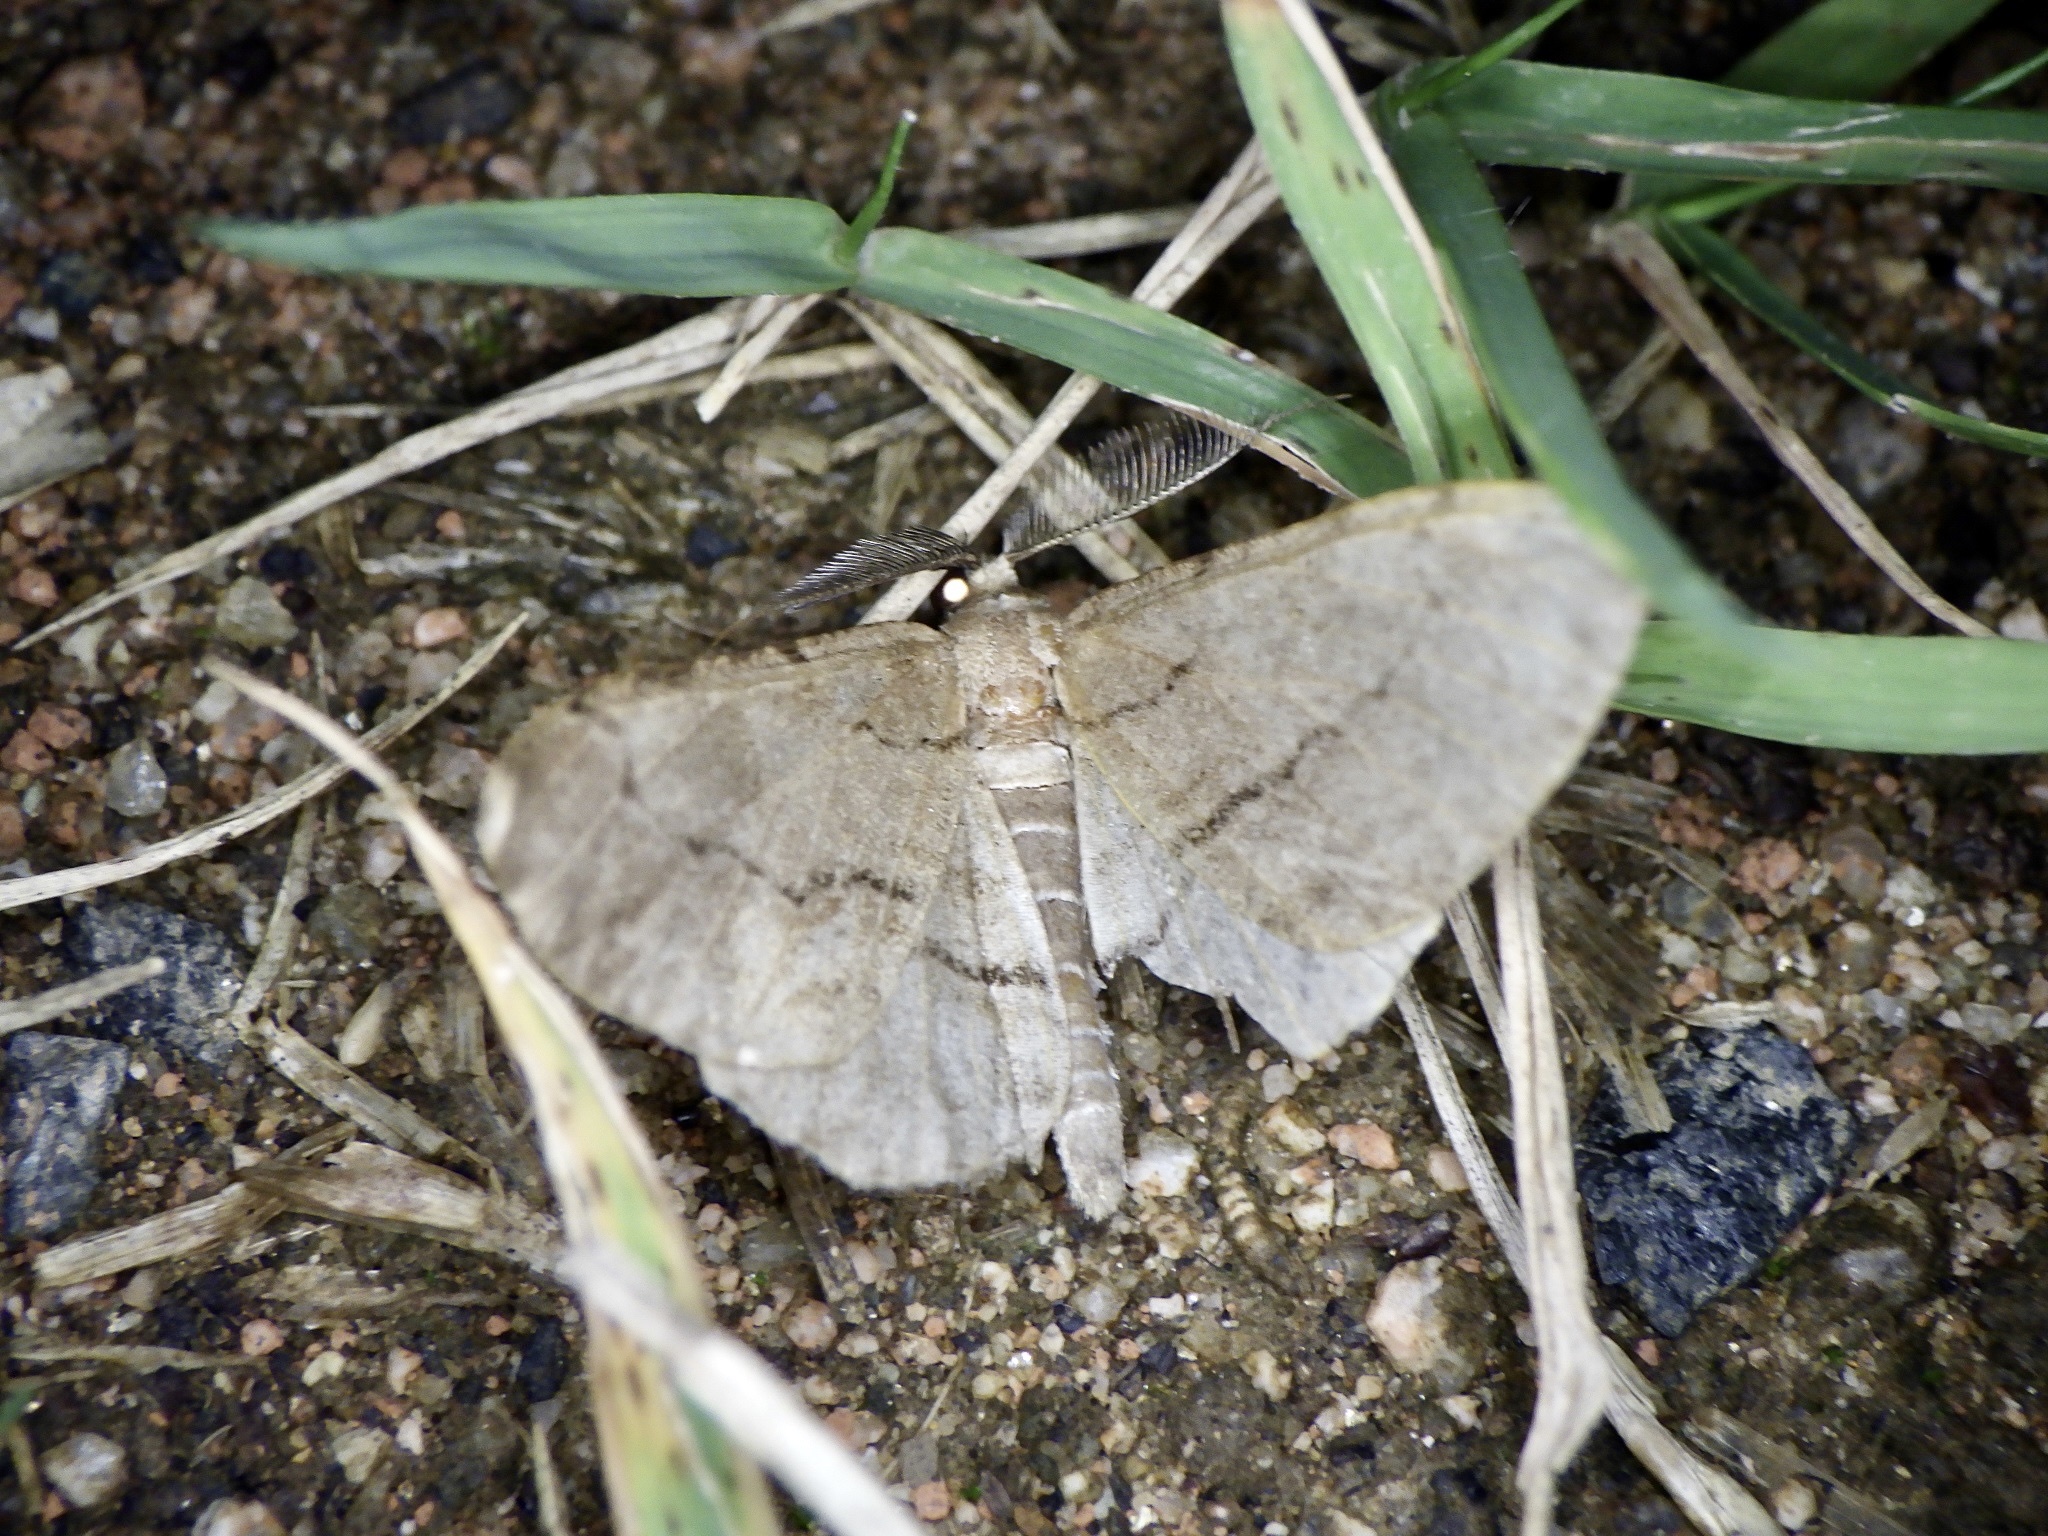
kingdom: Animalia
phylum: Arthropoda
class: Insecta
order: Lepidoptera
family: Geometridae
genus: Apocleora
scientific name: Apocleora rimosa
